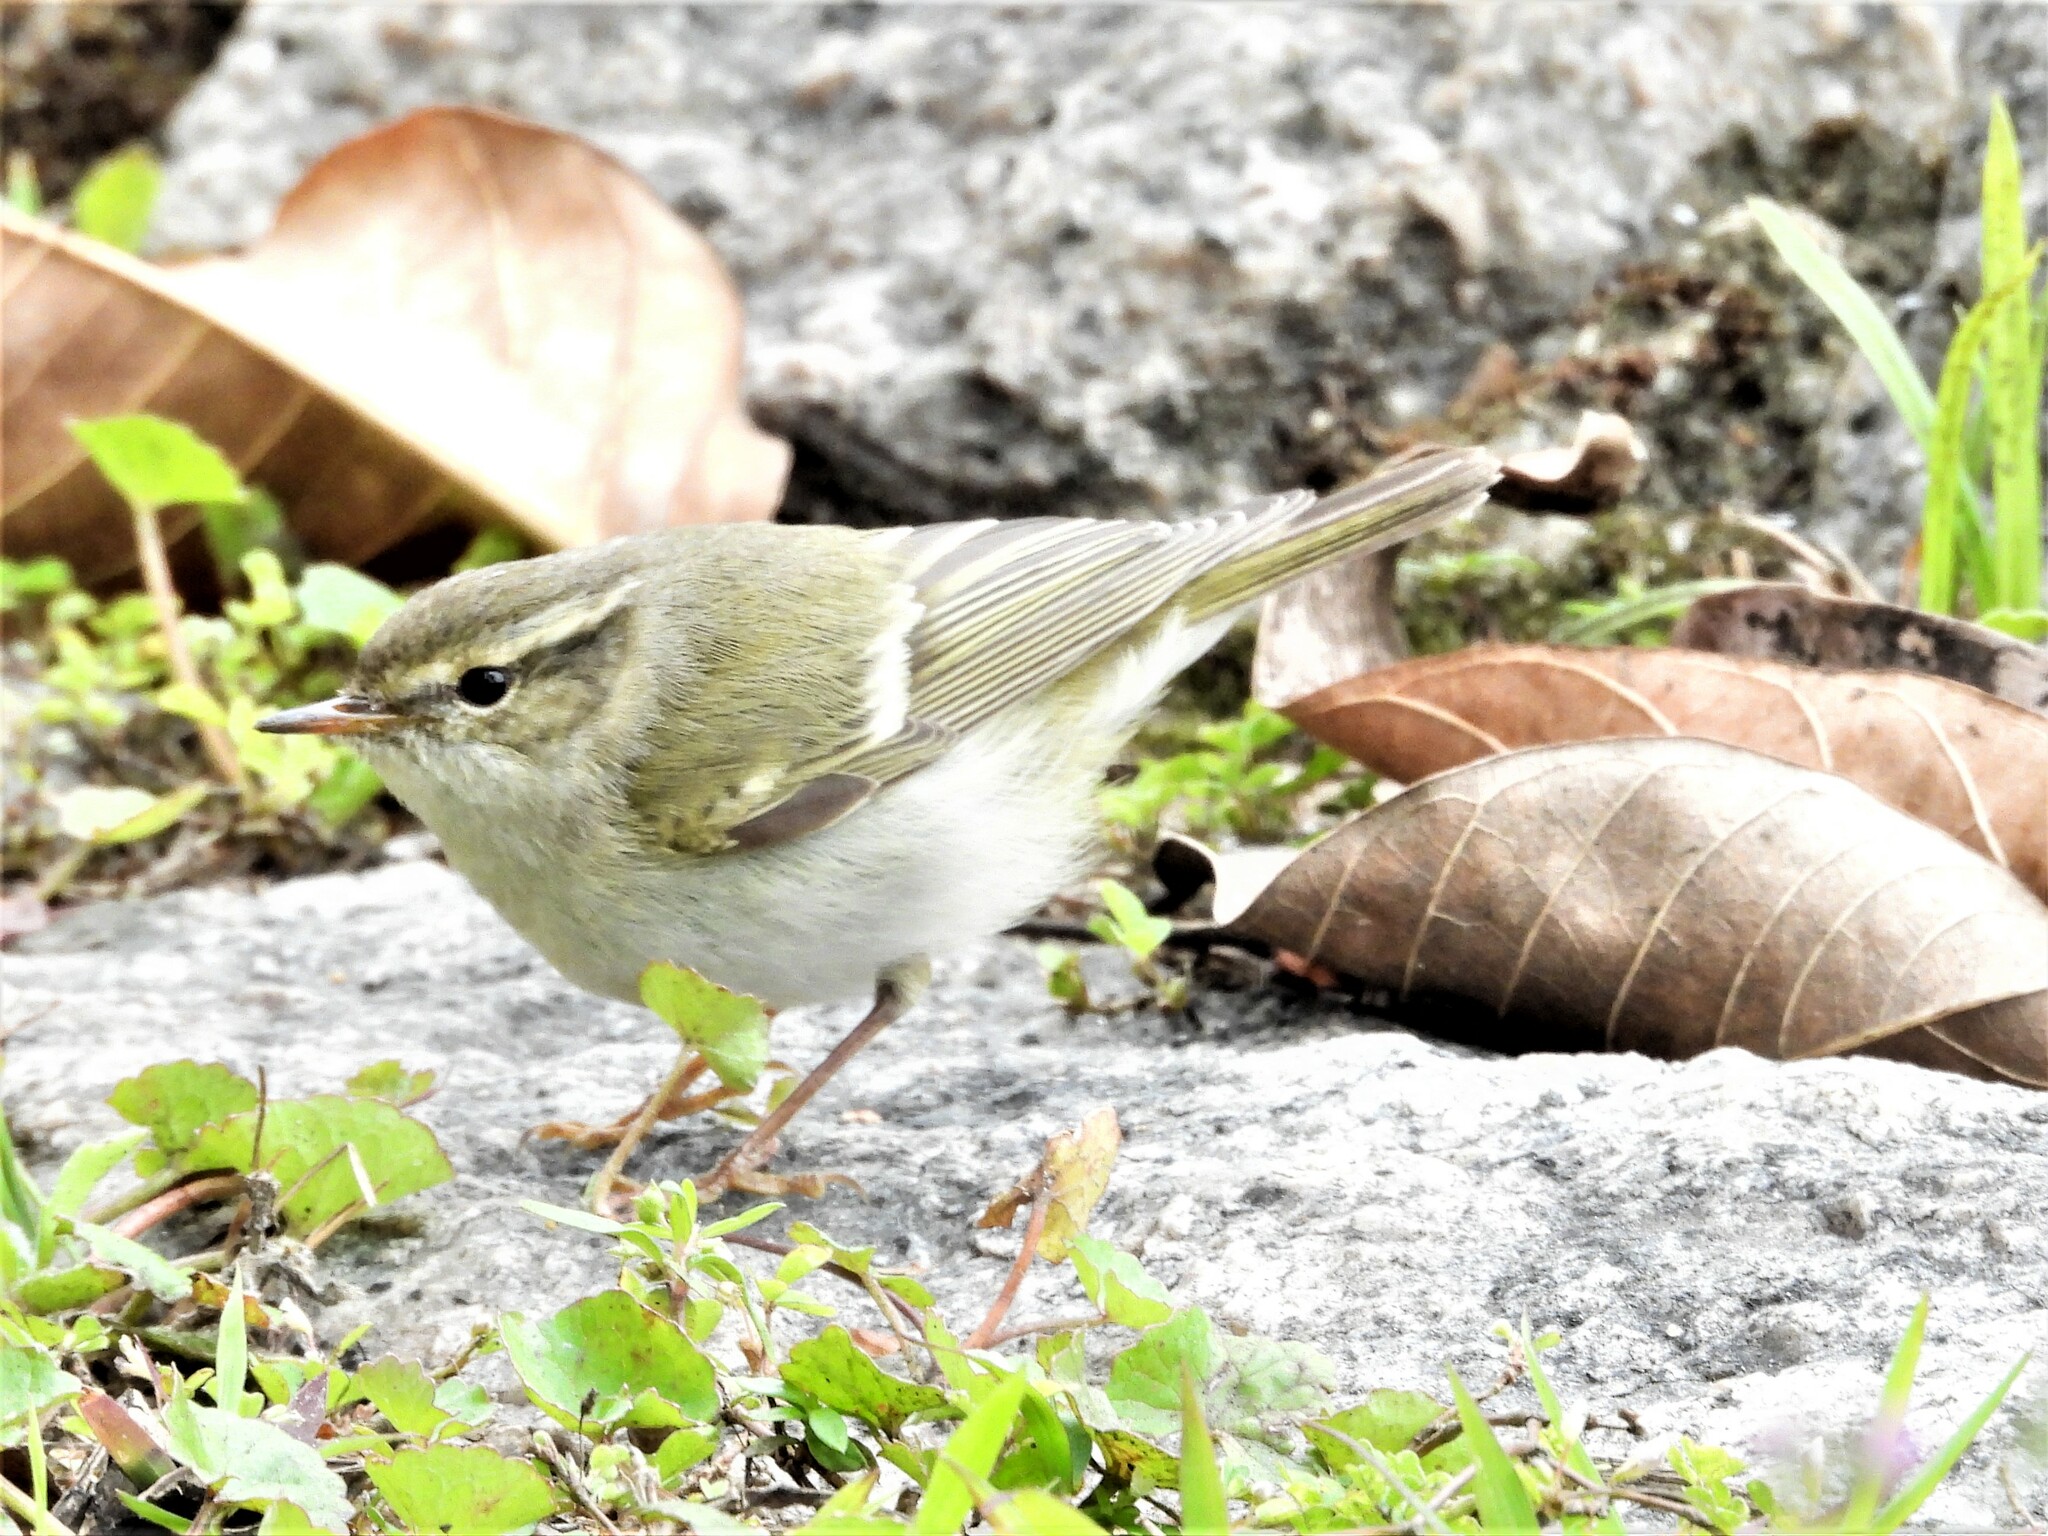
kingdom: Animalia
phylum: Chordata
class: Aves
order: Passeriformes
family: Phylloscopidae
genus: Phylloscopus
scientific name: Phylloscopus inornatus
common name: Yellow-browed warbler
